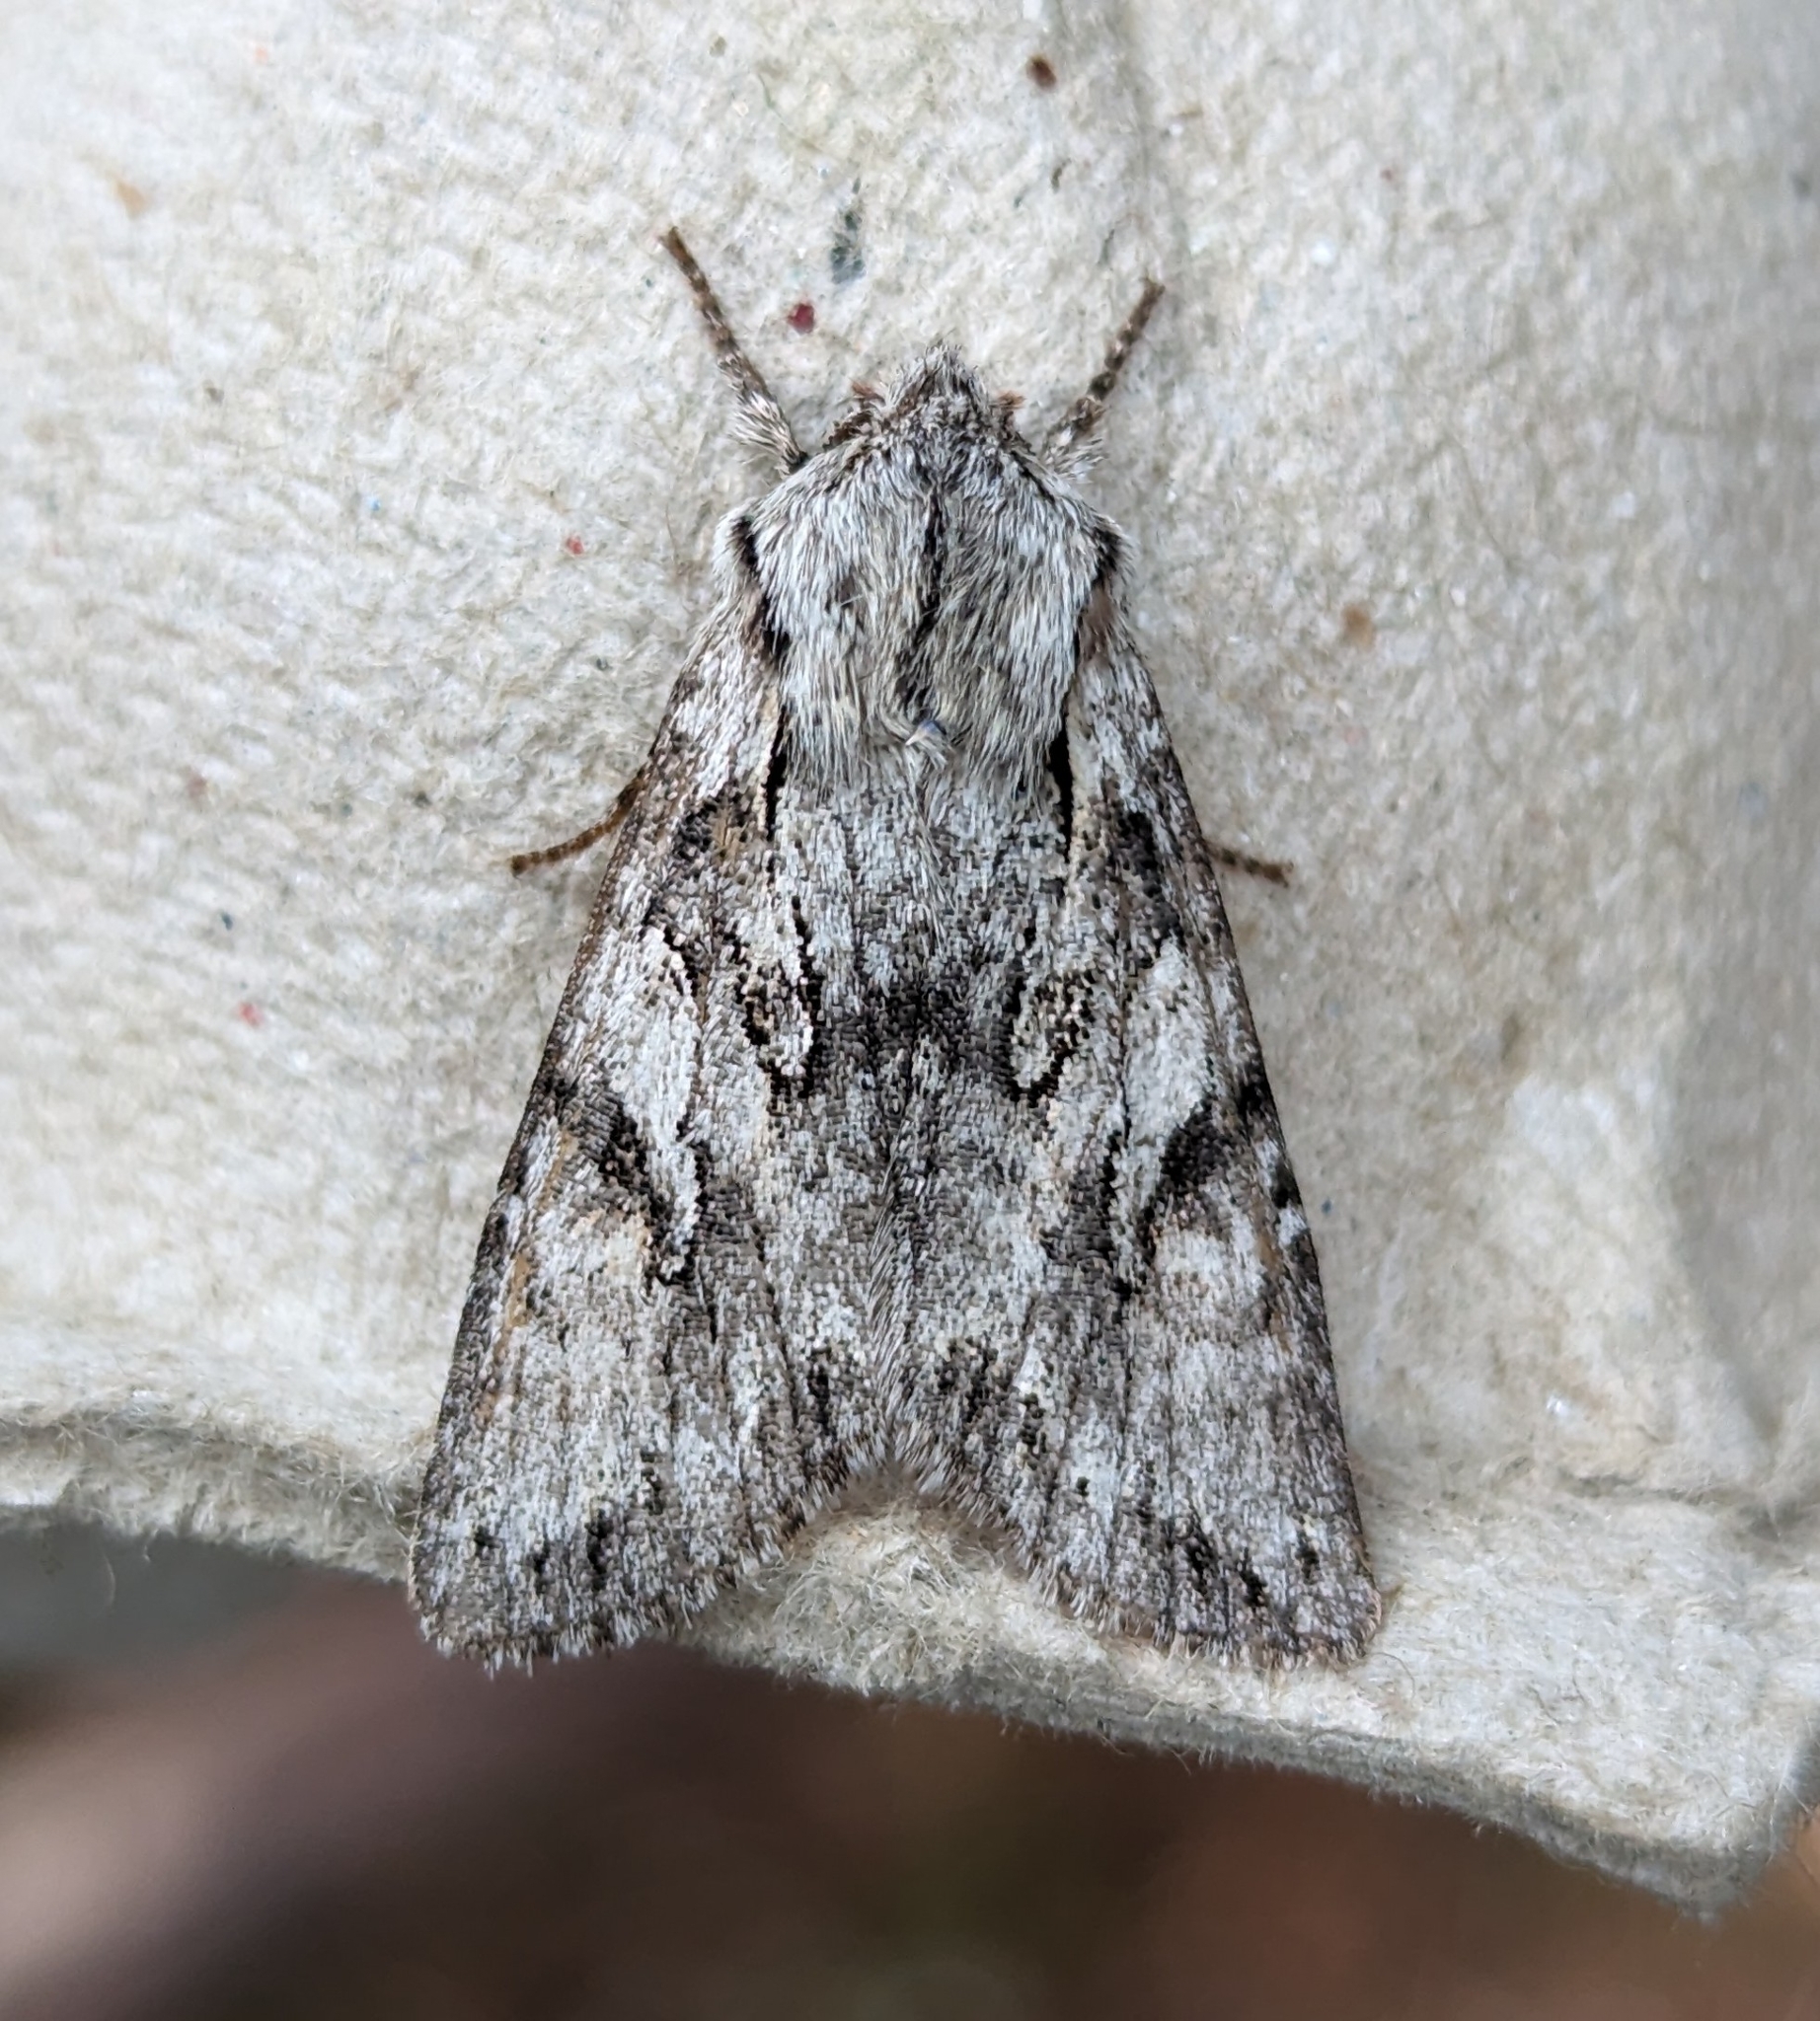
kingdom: Animalia
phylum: Arthropoda
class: Insecta
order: Lepidoptera
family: Noctuidae
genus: Egira
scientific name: Egira simplex
